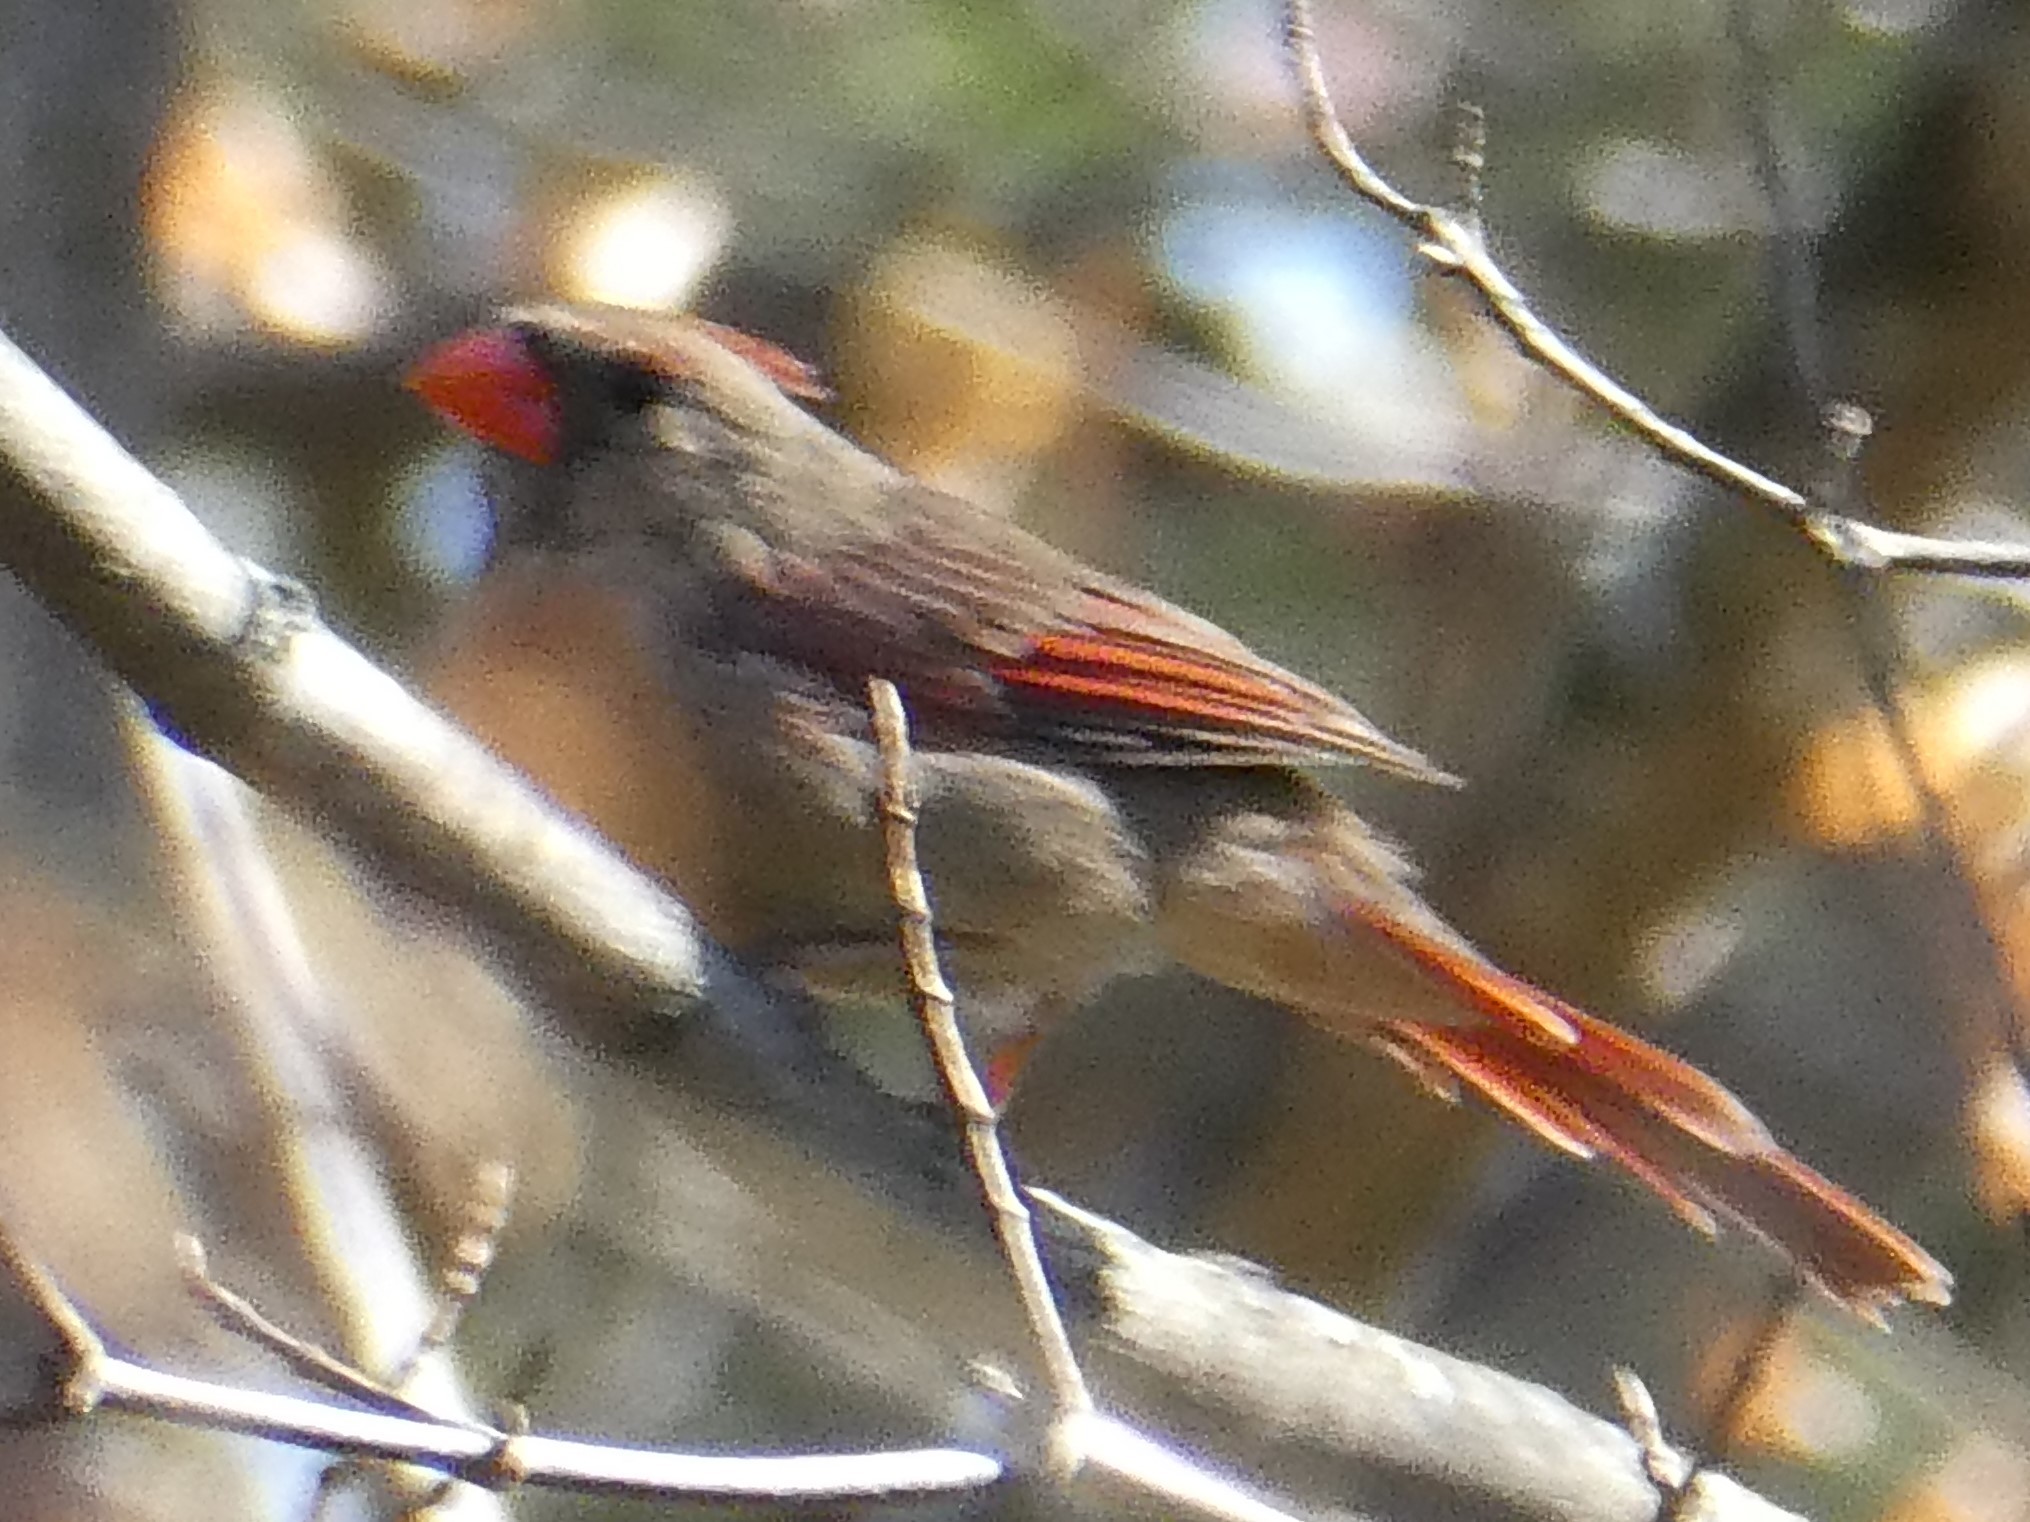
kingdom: Animalia
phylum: Chordata
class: Aves
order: Passeriformes
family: Cardinalidae
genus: Cardinalis
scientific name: Cardinalis cardinalis
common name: Northern cardinal
